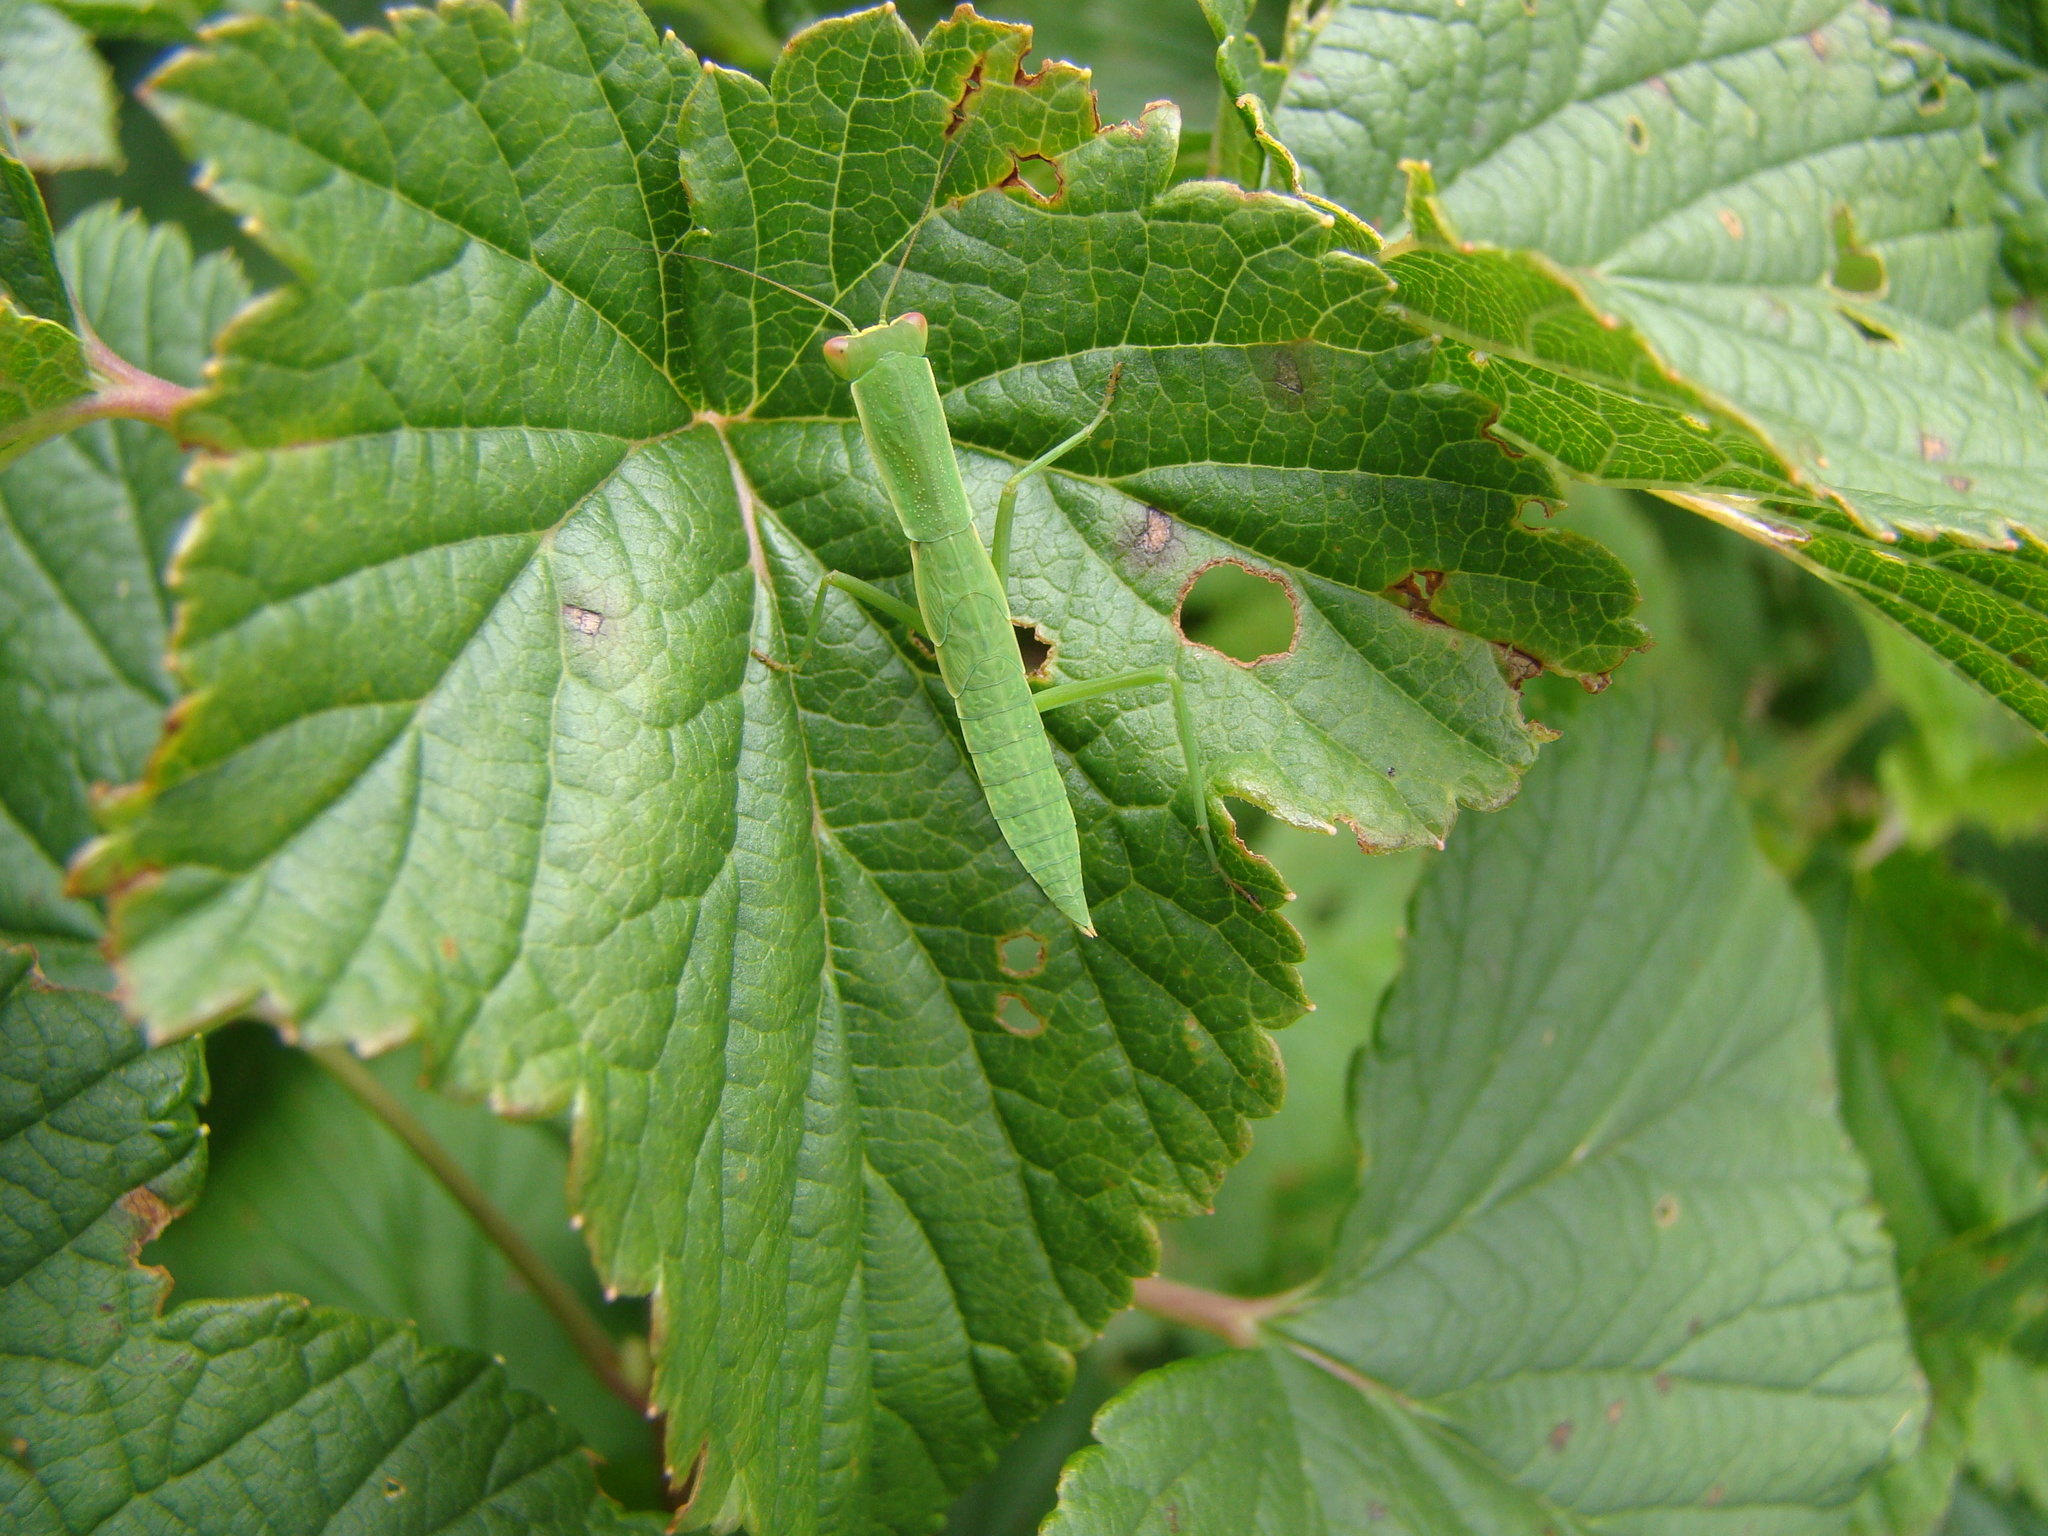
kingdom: Animalia
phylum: Arthropoda
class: Insecta
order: Mantodea
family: Mantidae
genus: Orthodera
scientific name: Orthodera novaezealandiae
